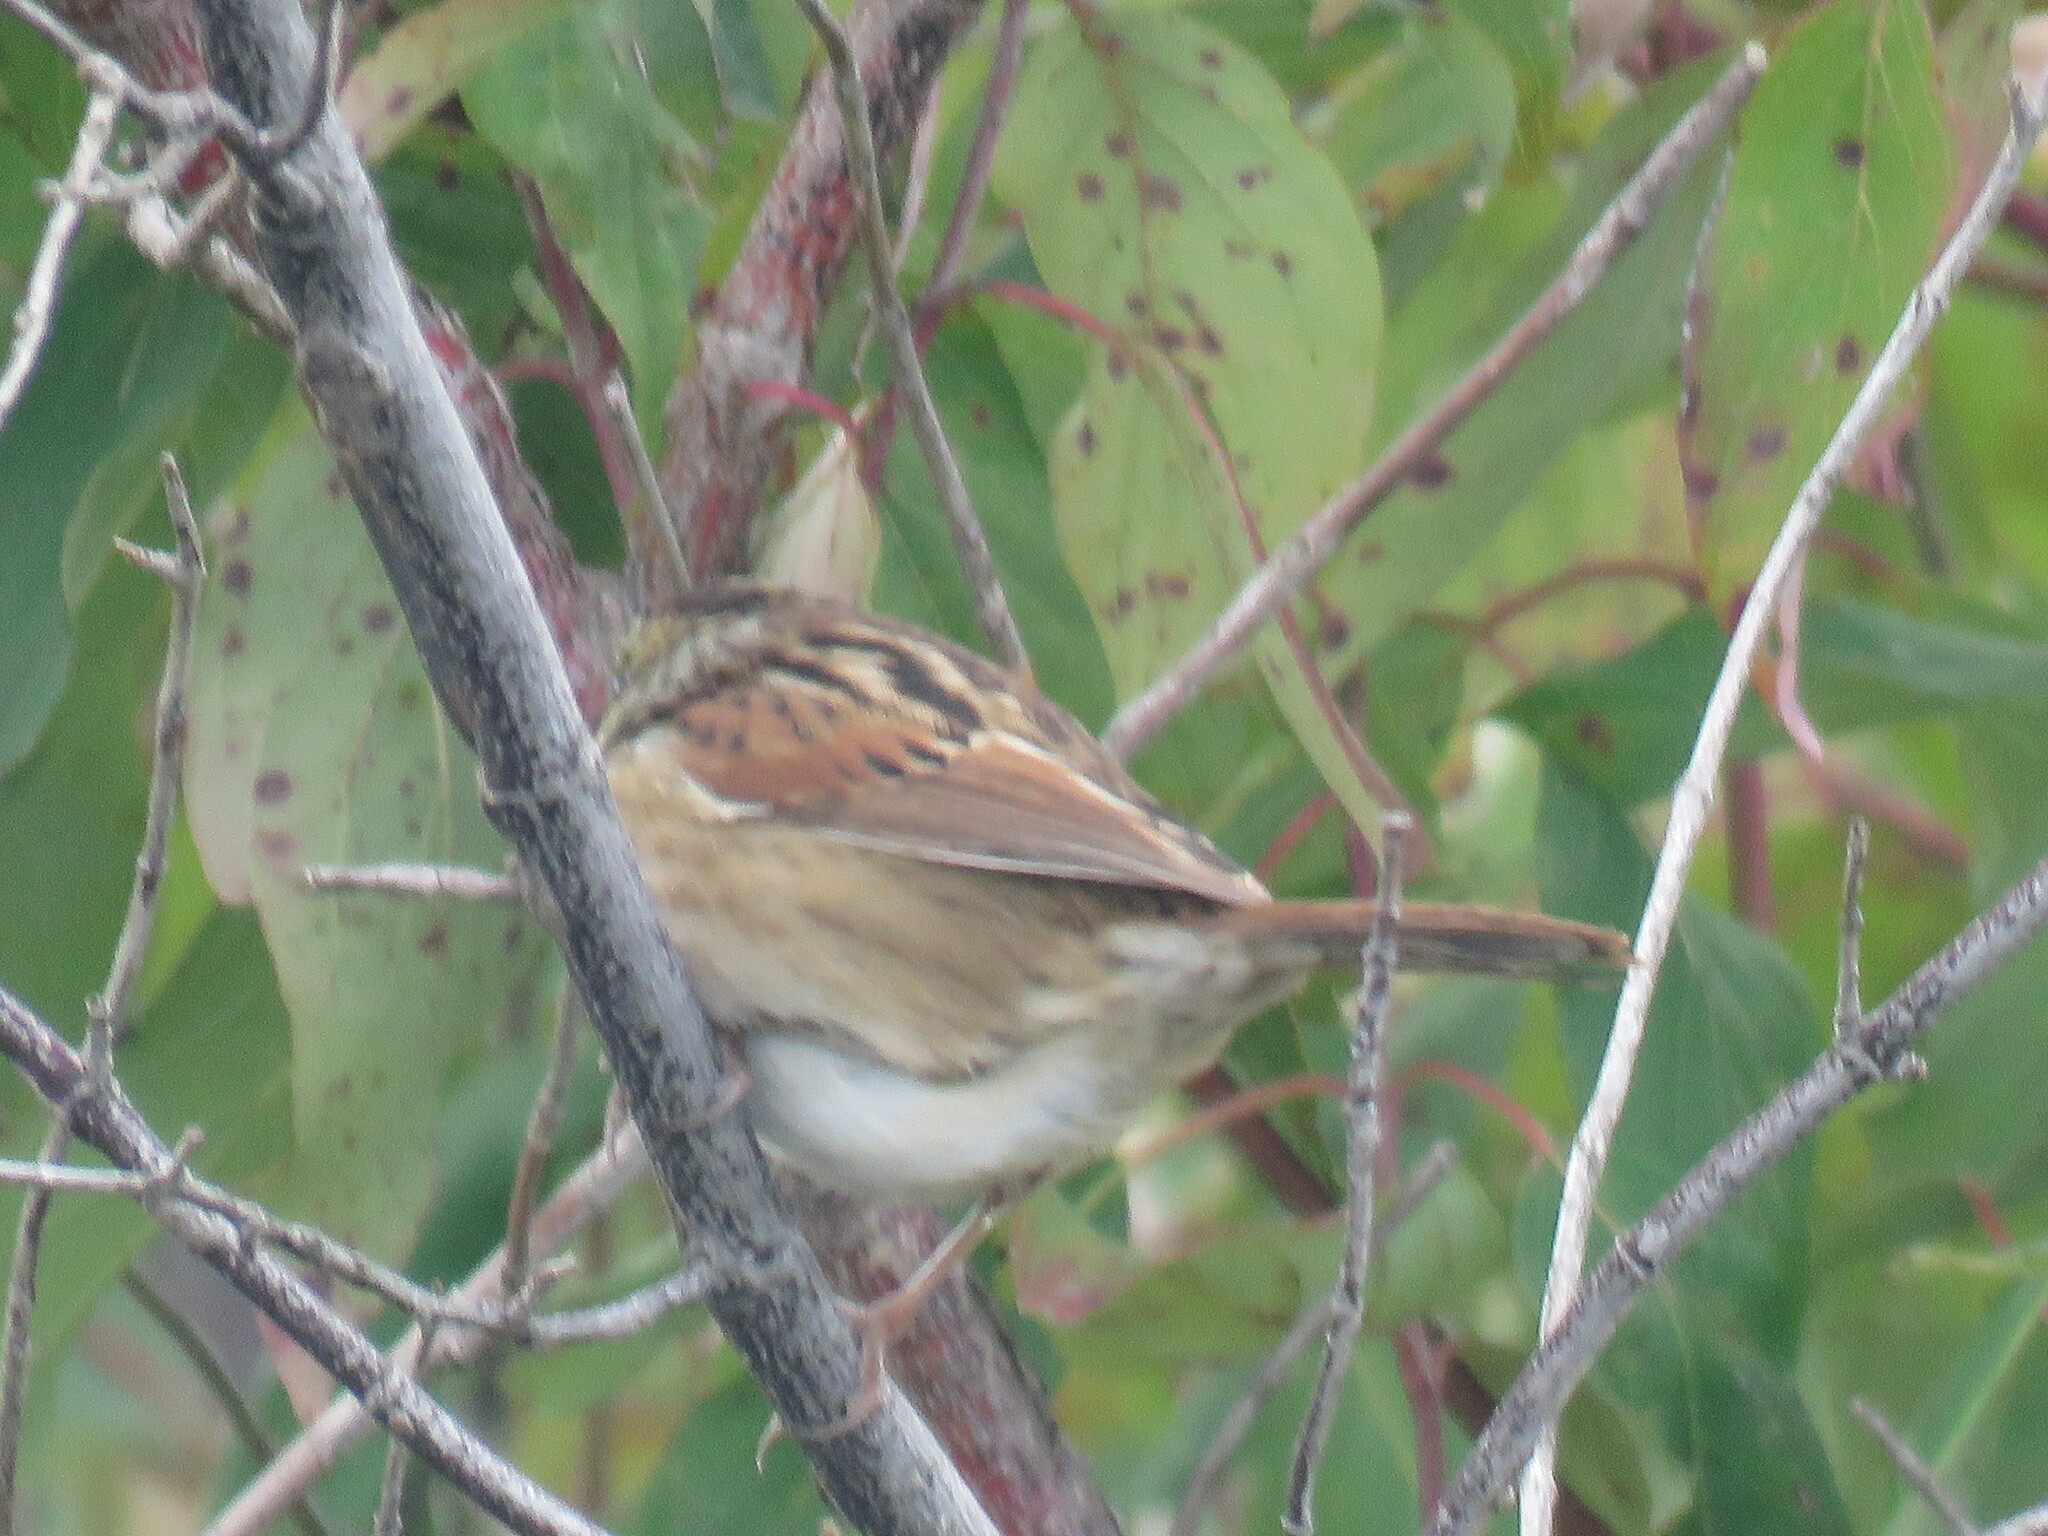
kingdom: Animalia
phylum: Chordata
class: Aves
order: Passeriformes
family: Passerellidae
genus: Melospiza
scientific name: Melospiza georgiana
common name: Swamp sparrow
